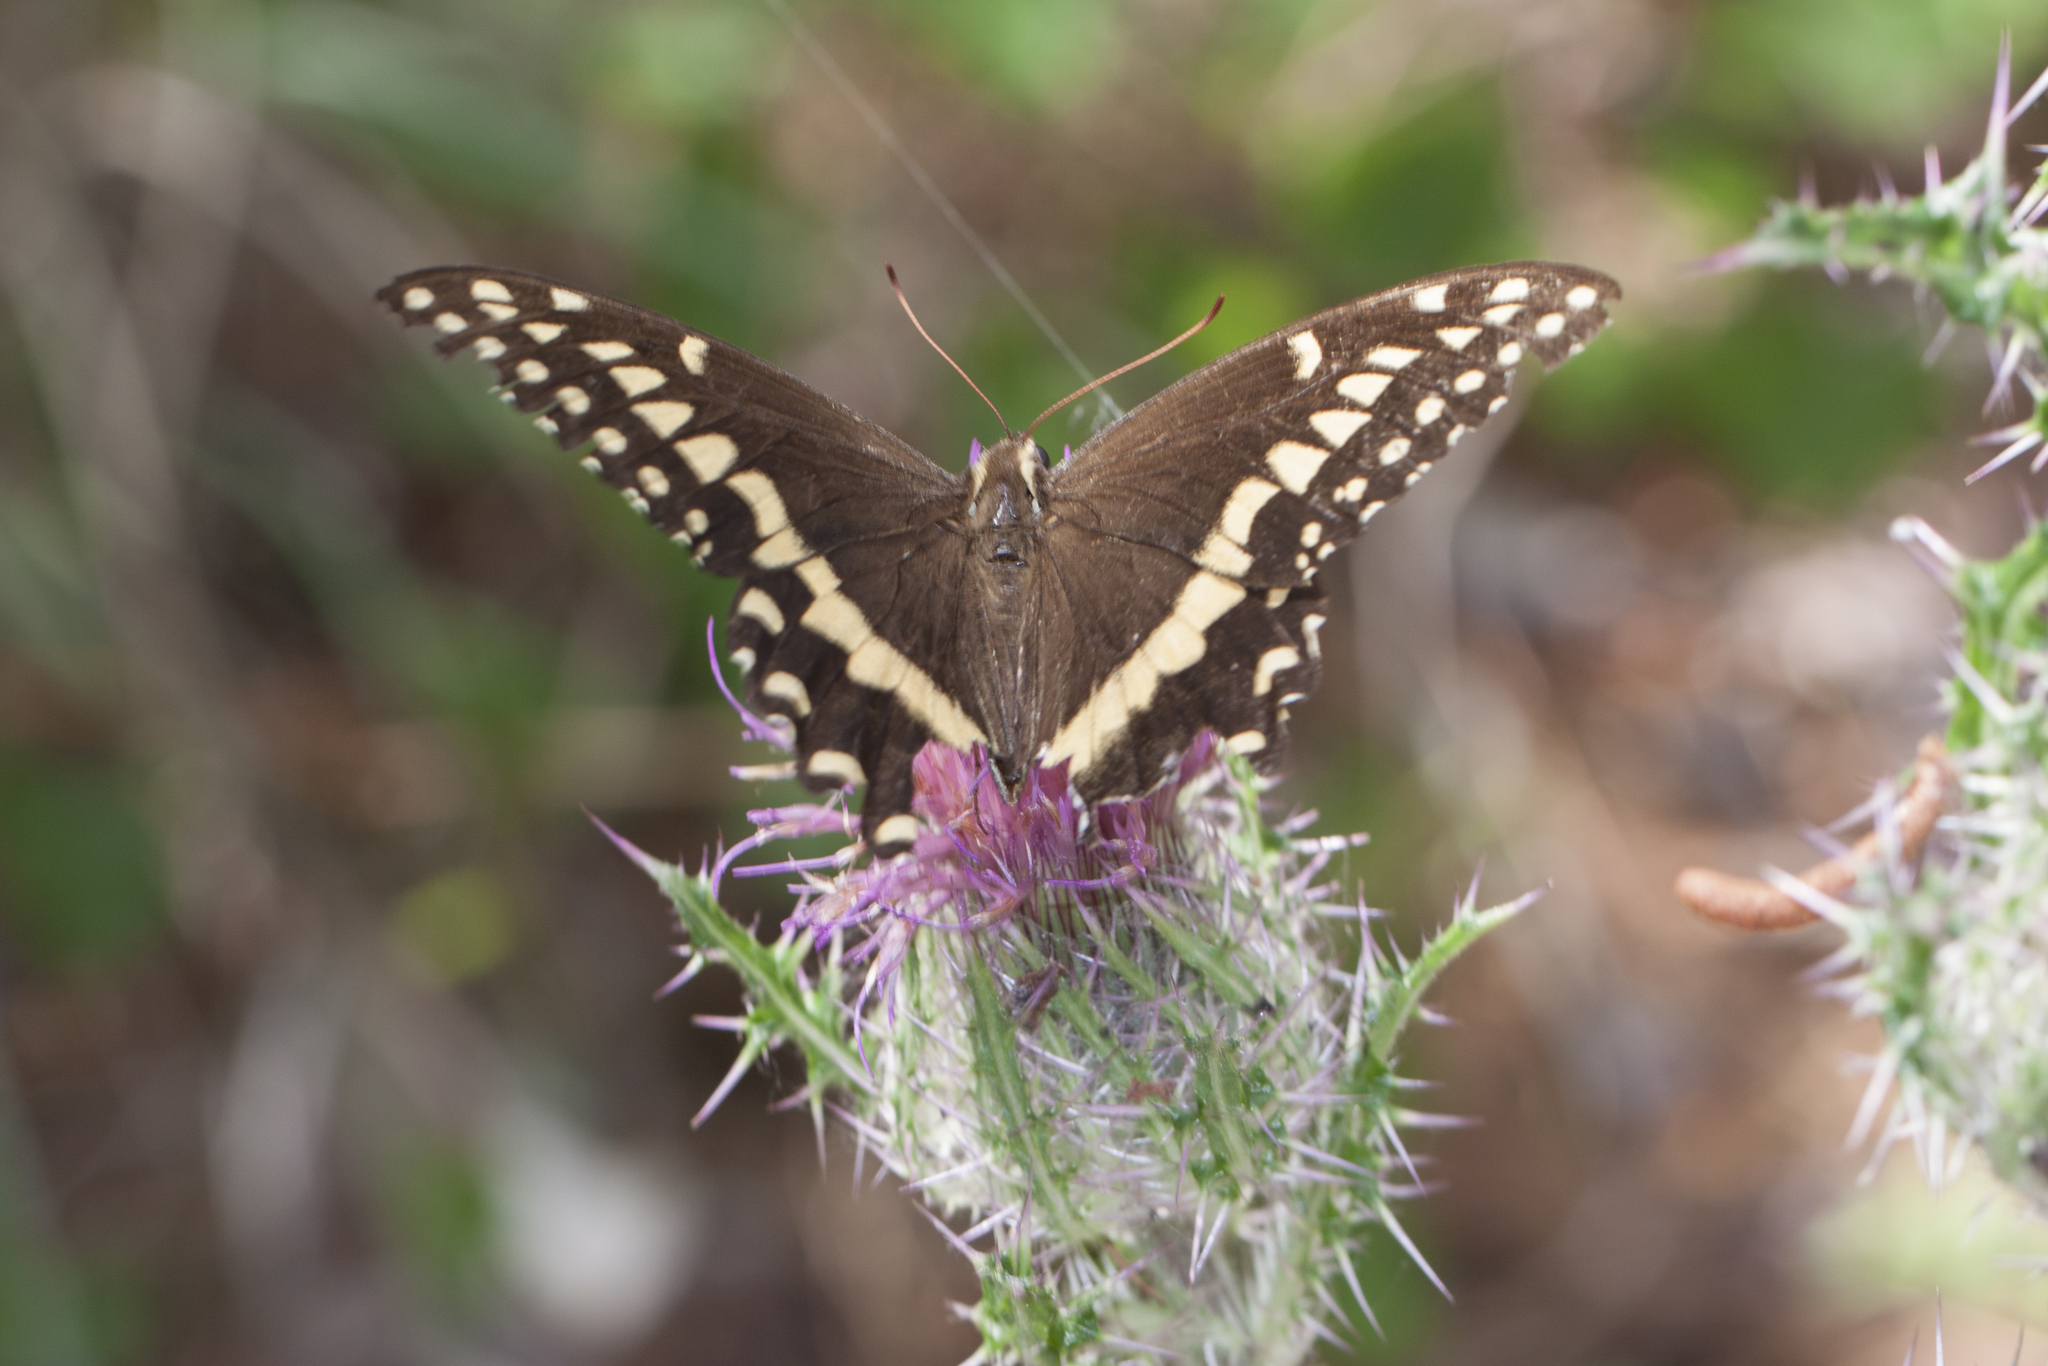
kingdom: Animalia
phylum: Arthropoda
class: Insecta
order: Lepidoptera
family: Papilionidae
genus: Papilio
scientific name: Papilio palamedes
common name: Palamedes swallowtail
